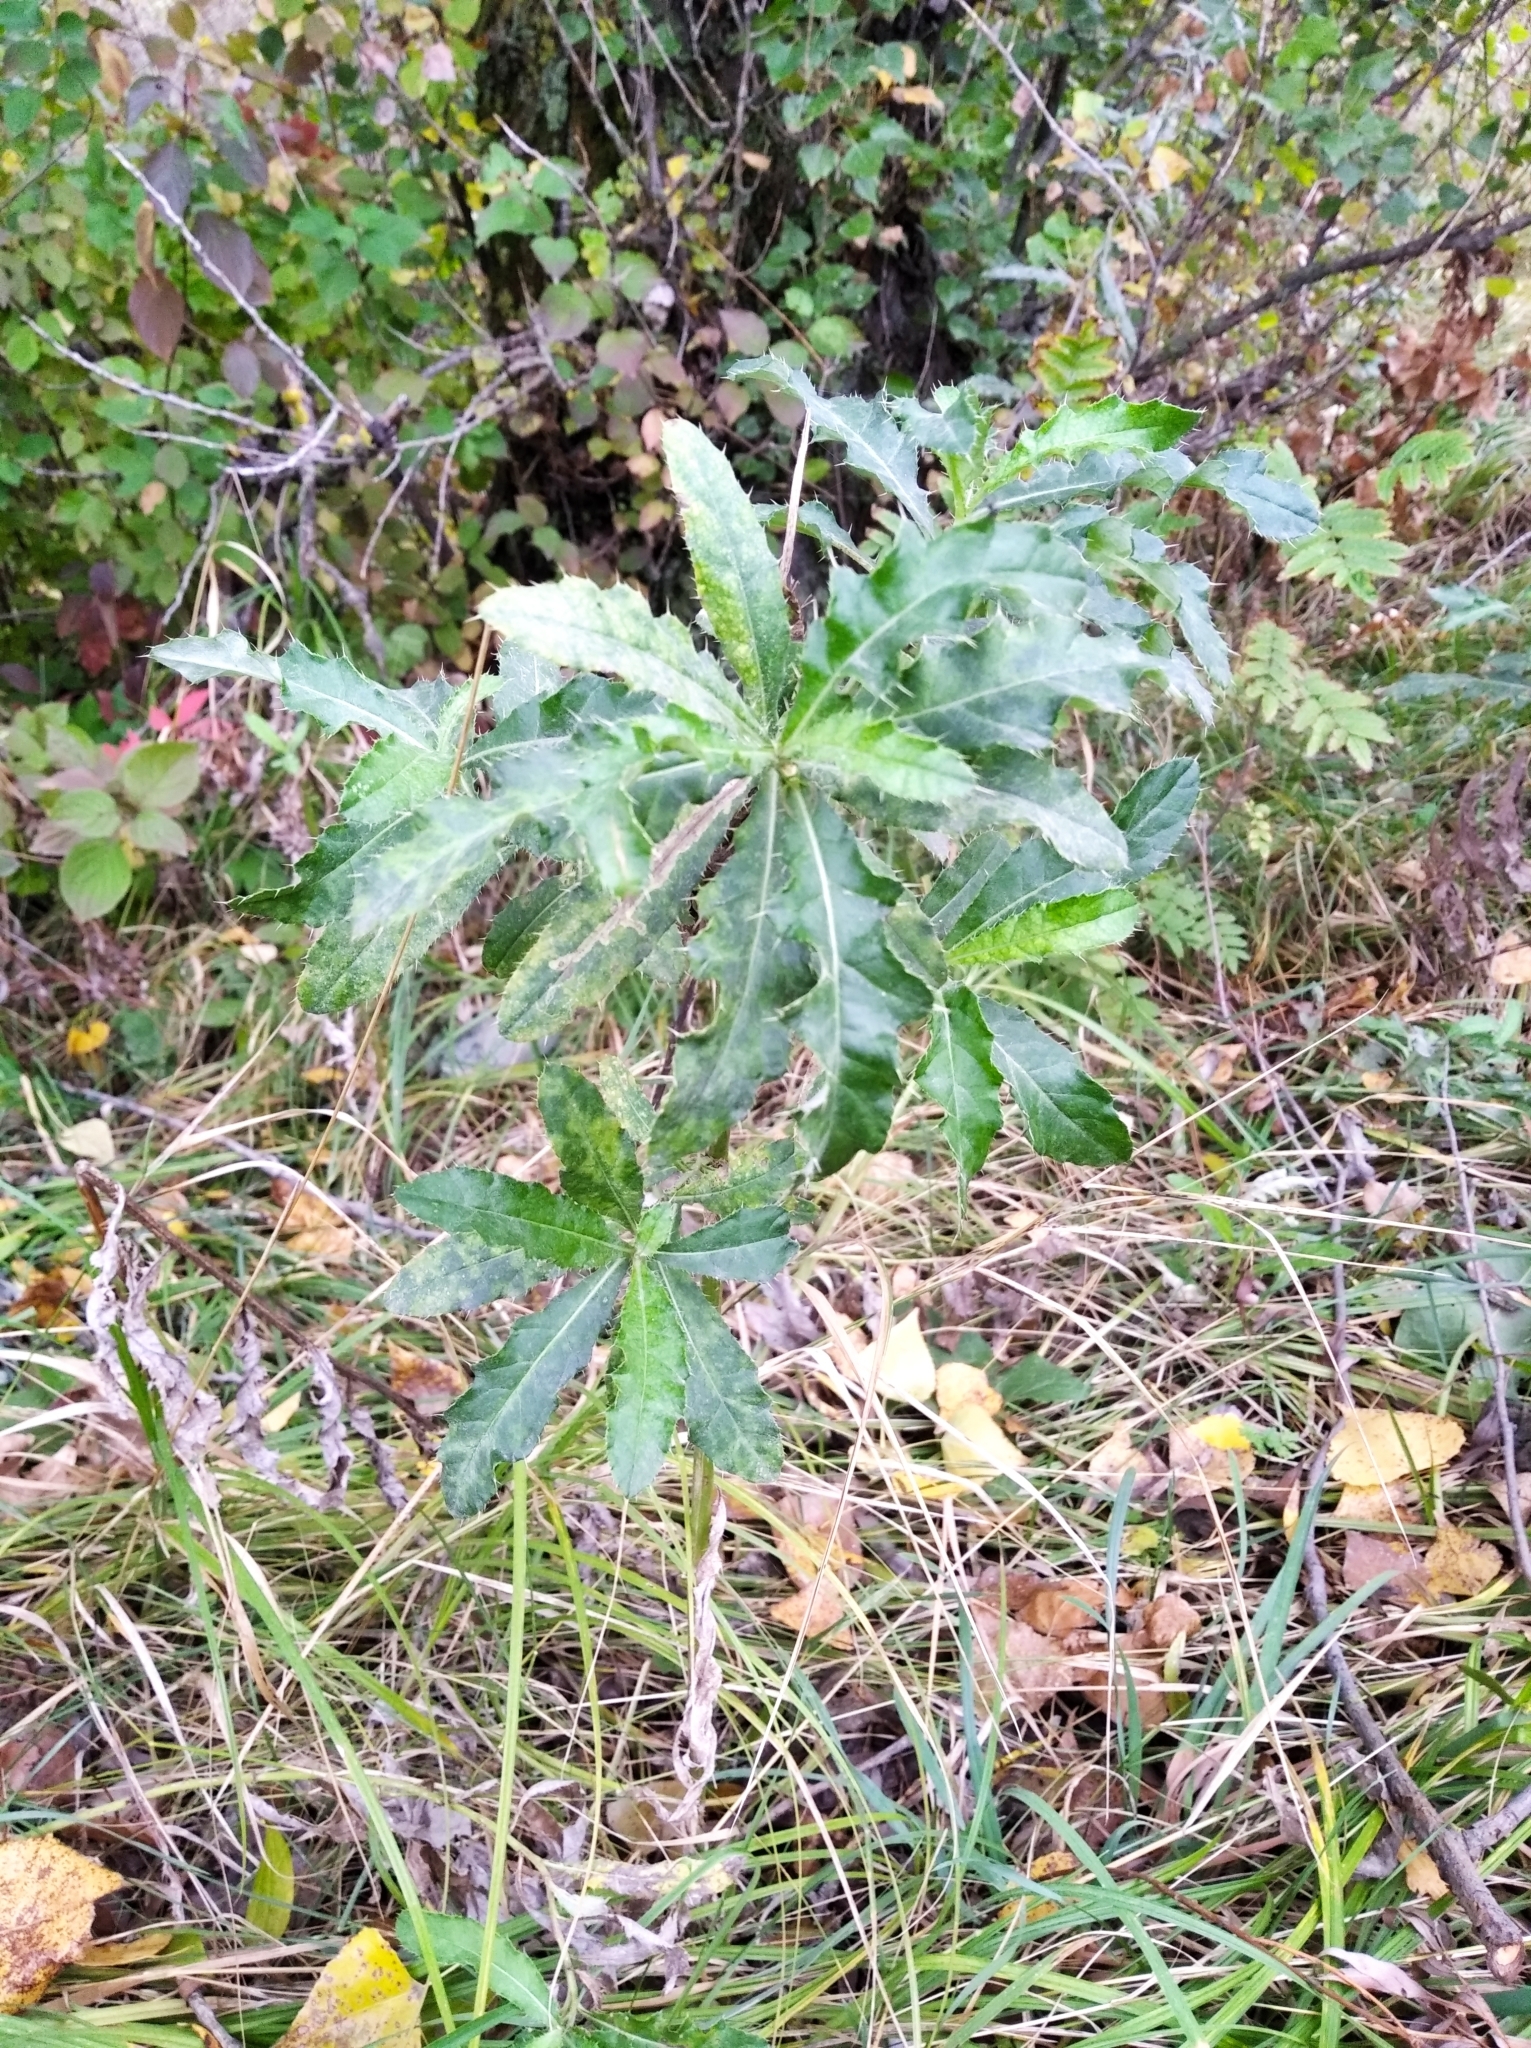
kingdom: Plantae
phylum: Tracheophyta
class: Magnoliopsida
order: Asterales
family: Asteraceae
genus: Cirsium
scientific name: Cirsium arvense
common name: Creeping thistle
